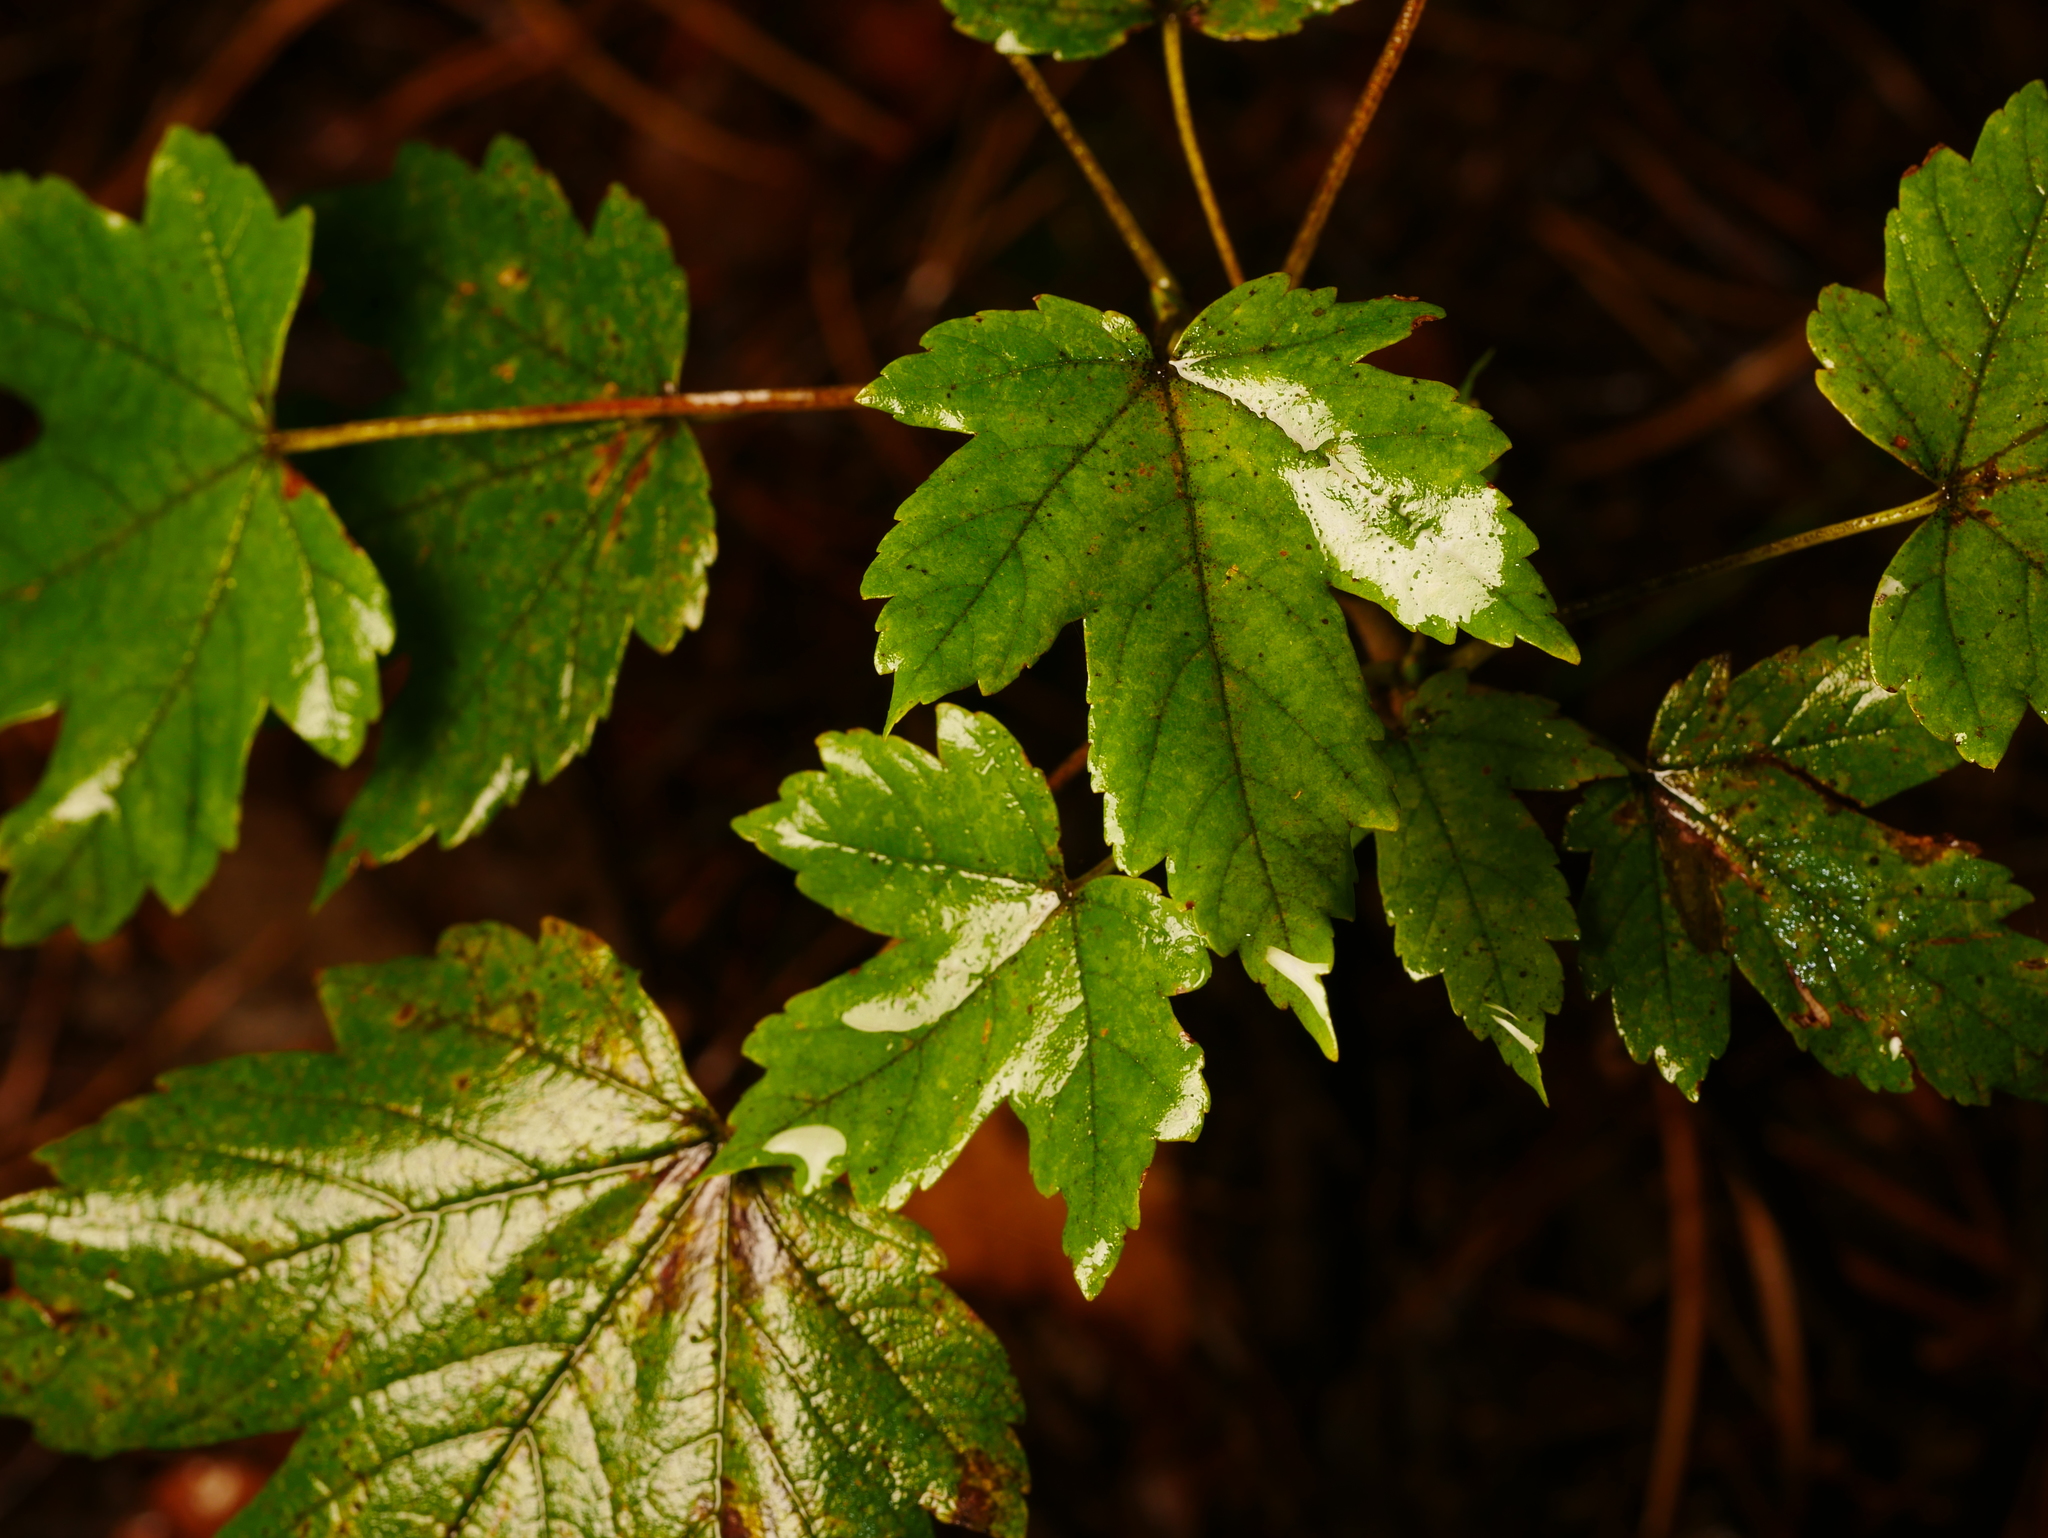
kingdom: Plantae
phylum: Tracheophyta
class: Magnoliopsida
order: Sapindales
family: Sapindaceae
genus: Acer
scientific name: Acer pseudoplatanus
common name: Sycamore
